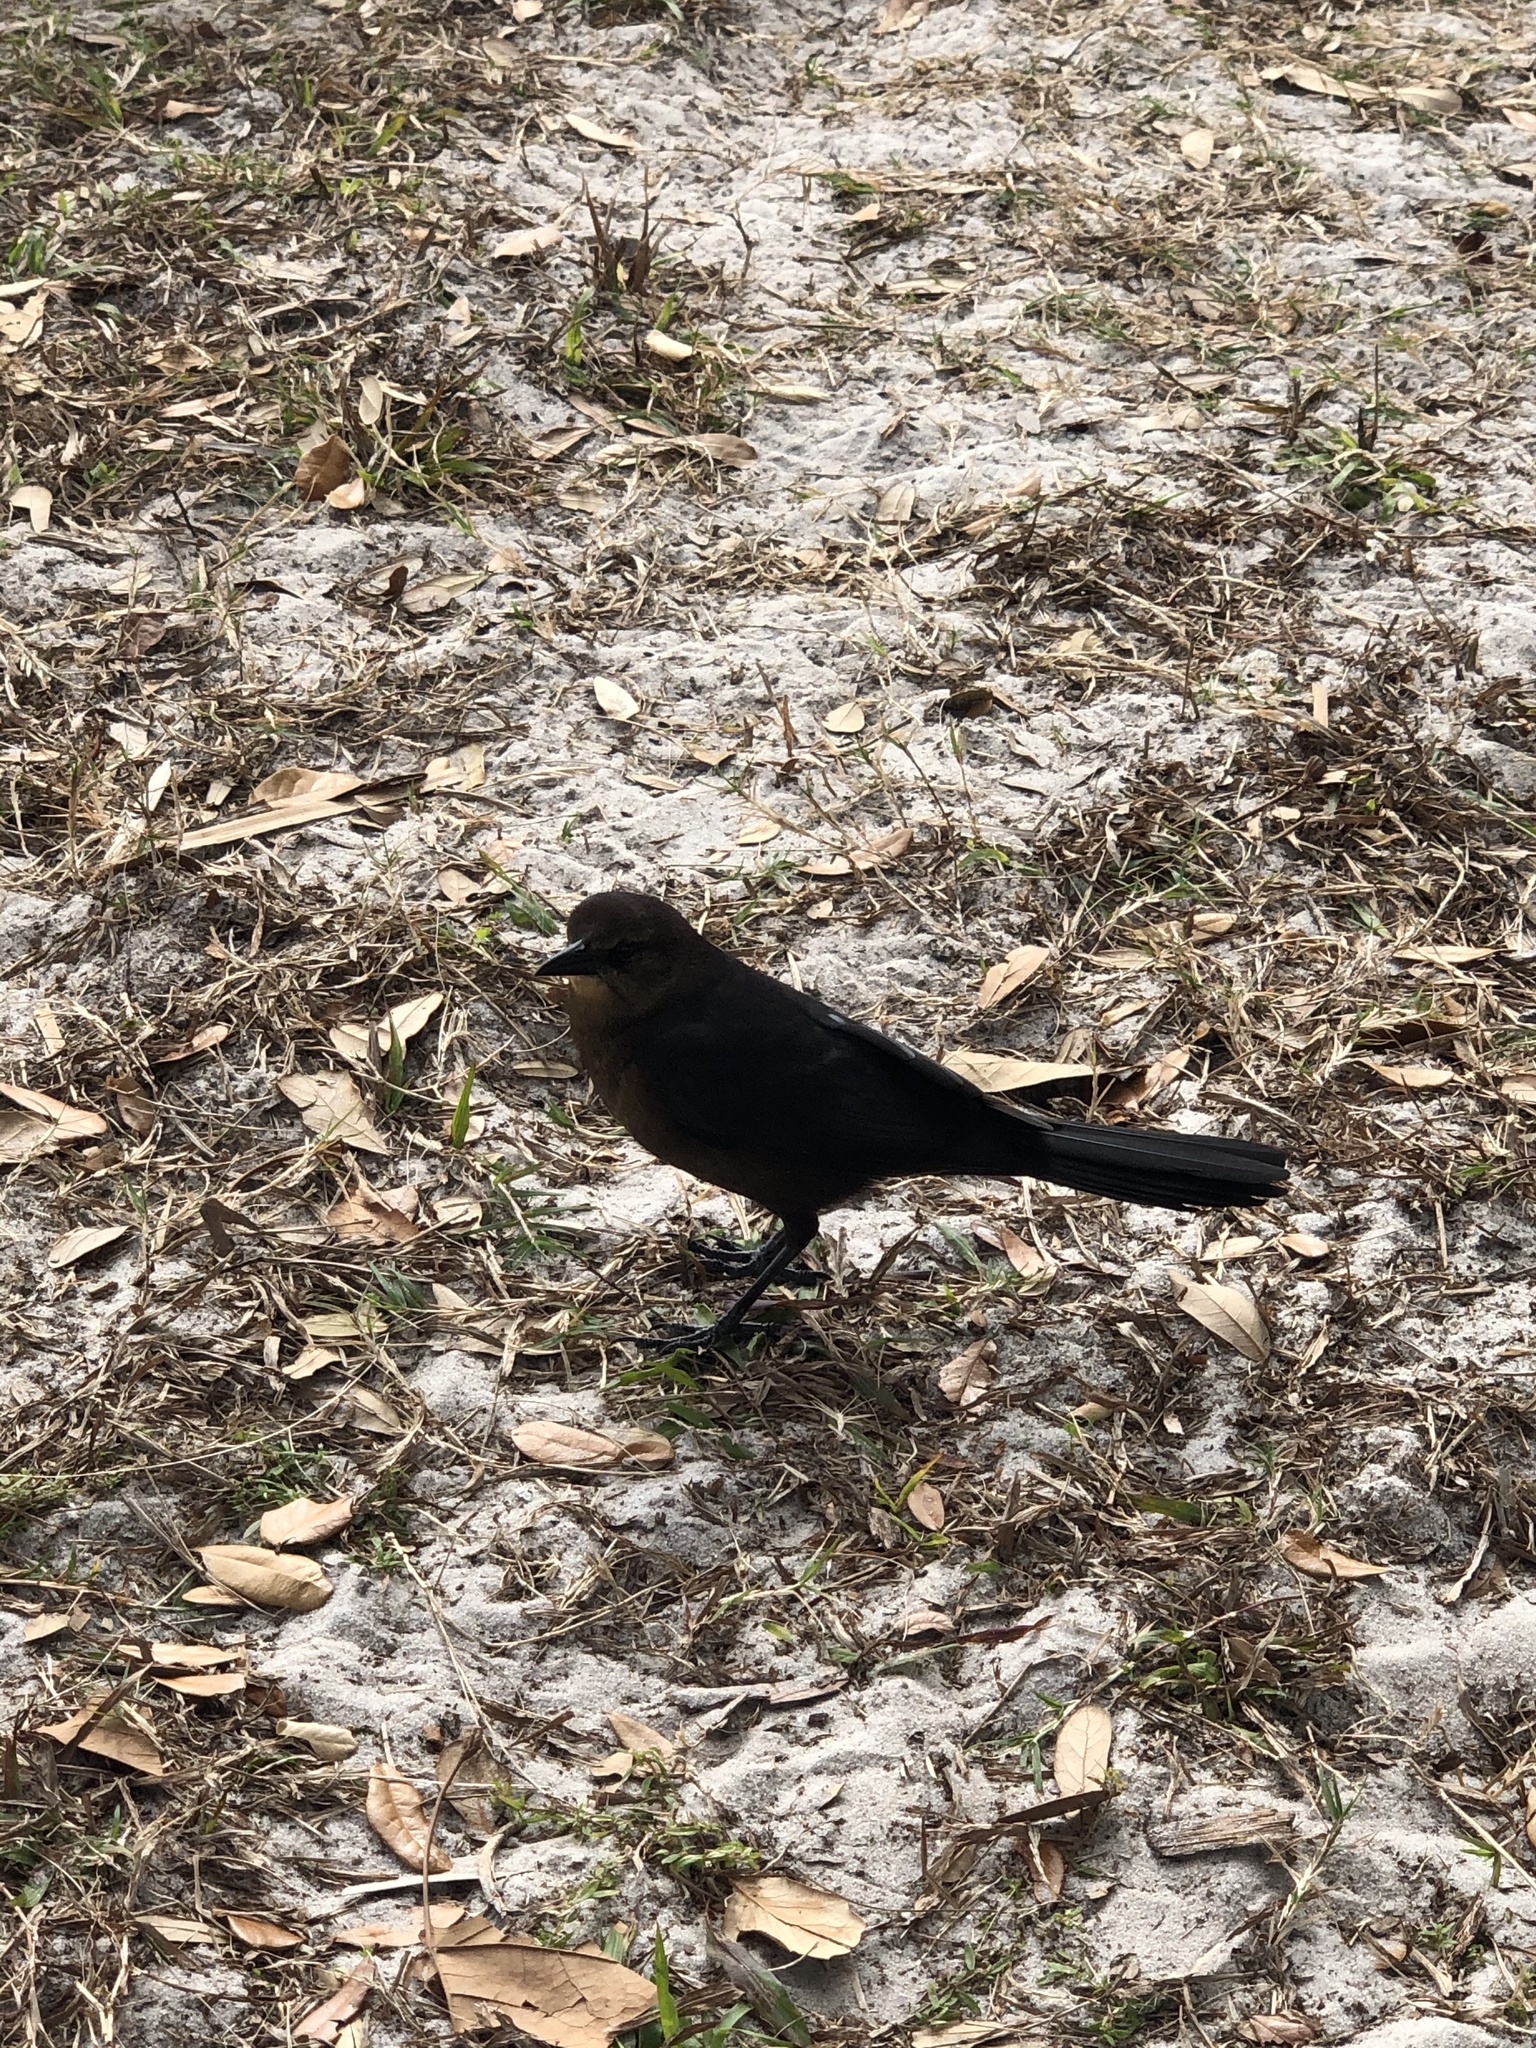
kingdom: Animalia
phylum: Chordata
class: Aves
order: Passeriformes
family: Icteridae
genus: Quiscalus
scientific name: Quiscalus major
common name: Boat-tailed grackle
